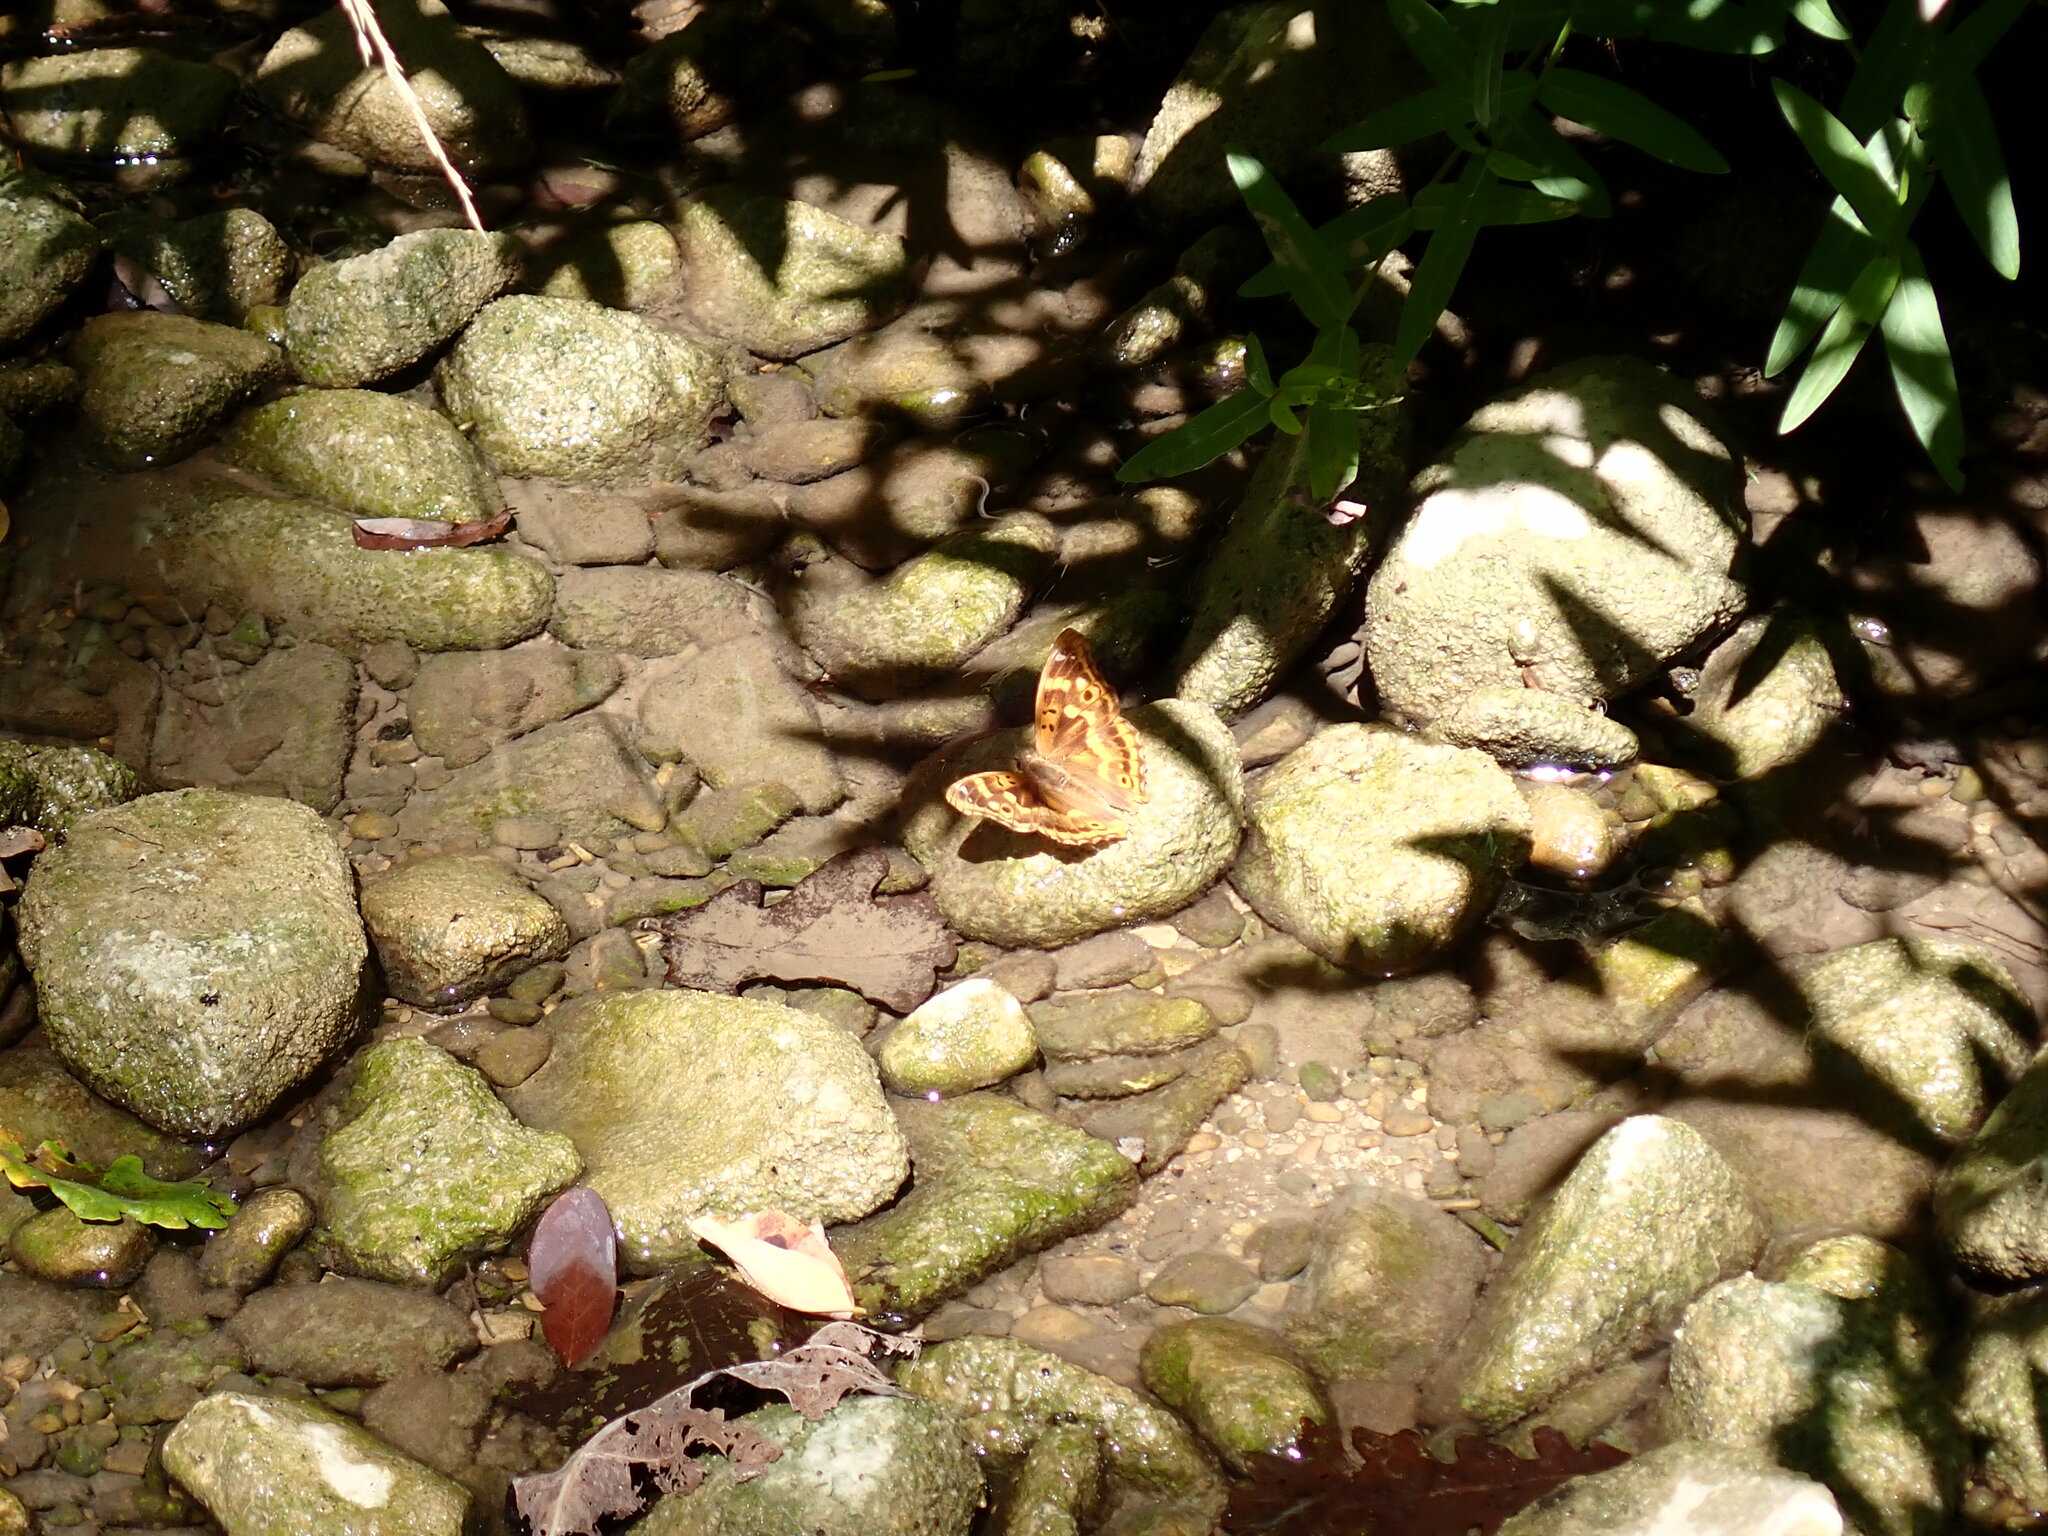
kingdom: Animalia
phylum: Arthropoda
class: Insecta
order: Lepidoptera
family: Nymphalidae
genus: Apatura
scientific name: Apatura ilia
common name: Lesser purple emperor
